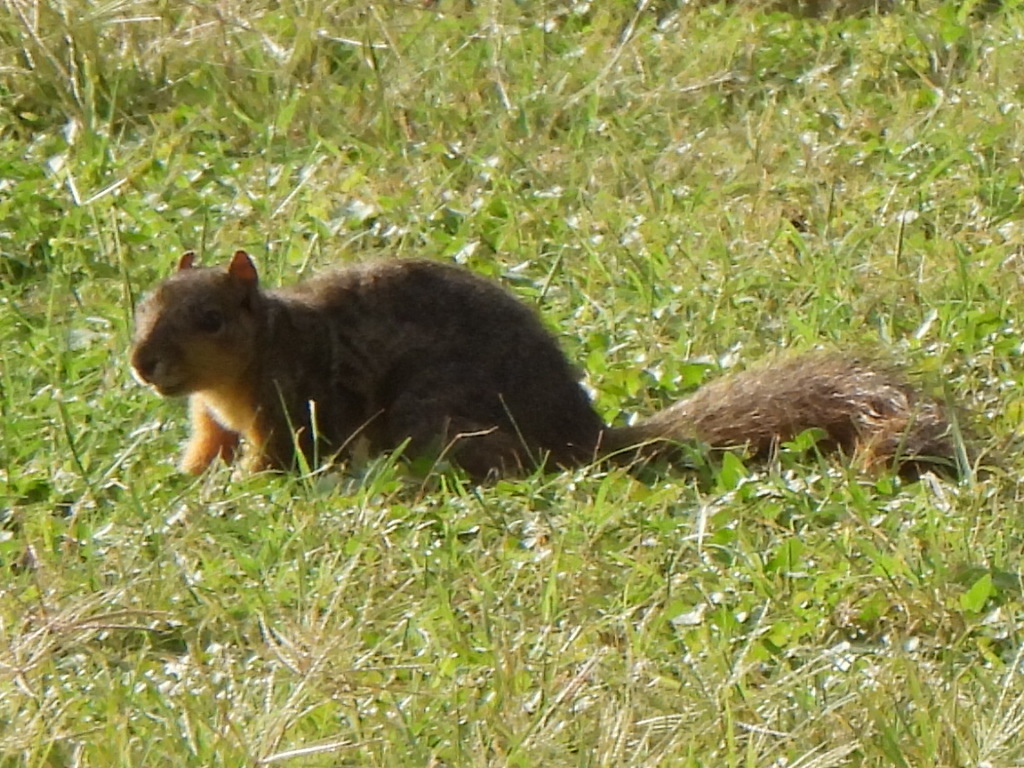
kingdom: Animalia
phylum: Chordata
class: Mammalia
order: Rodentia
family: Sciuridae
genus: Sciurus
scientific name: Sciurus niger
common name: Fox squirrel
